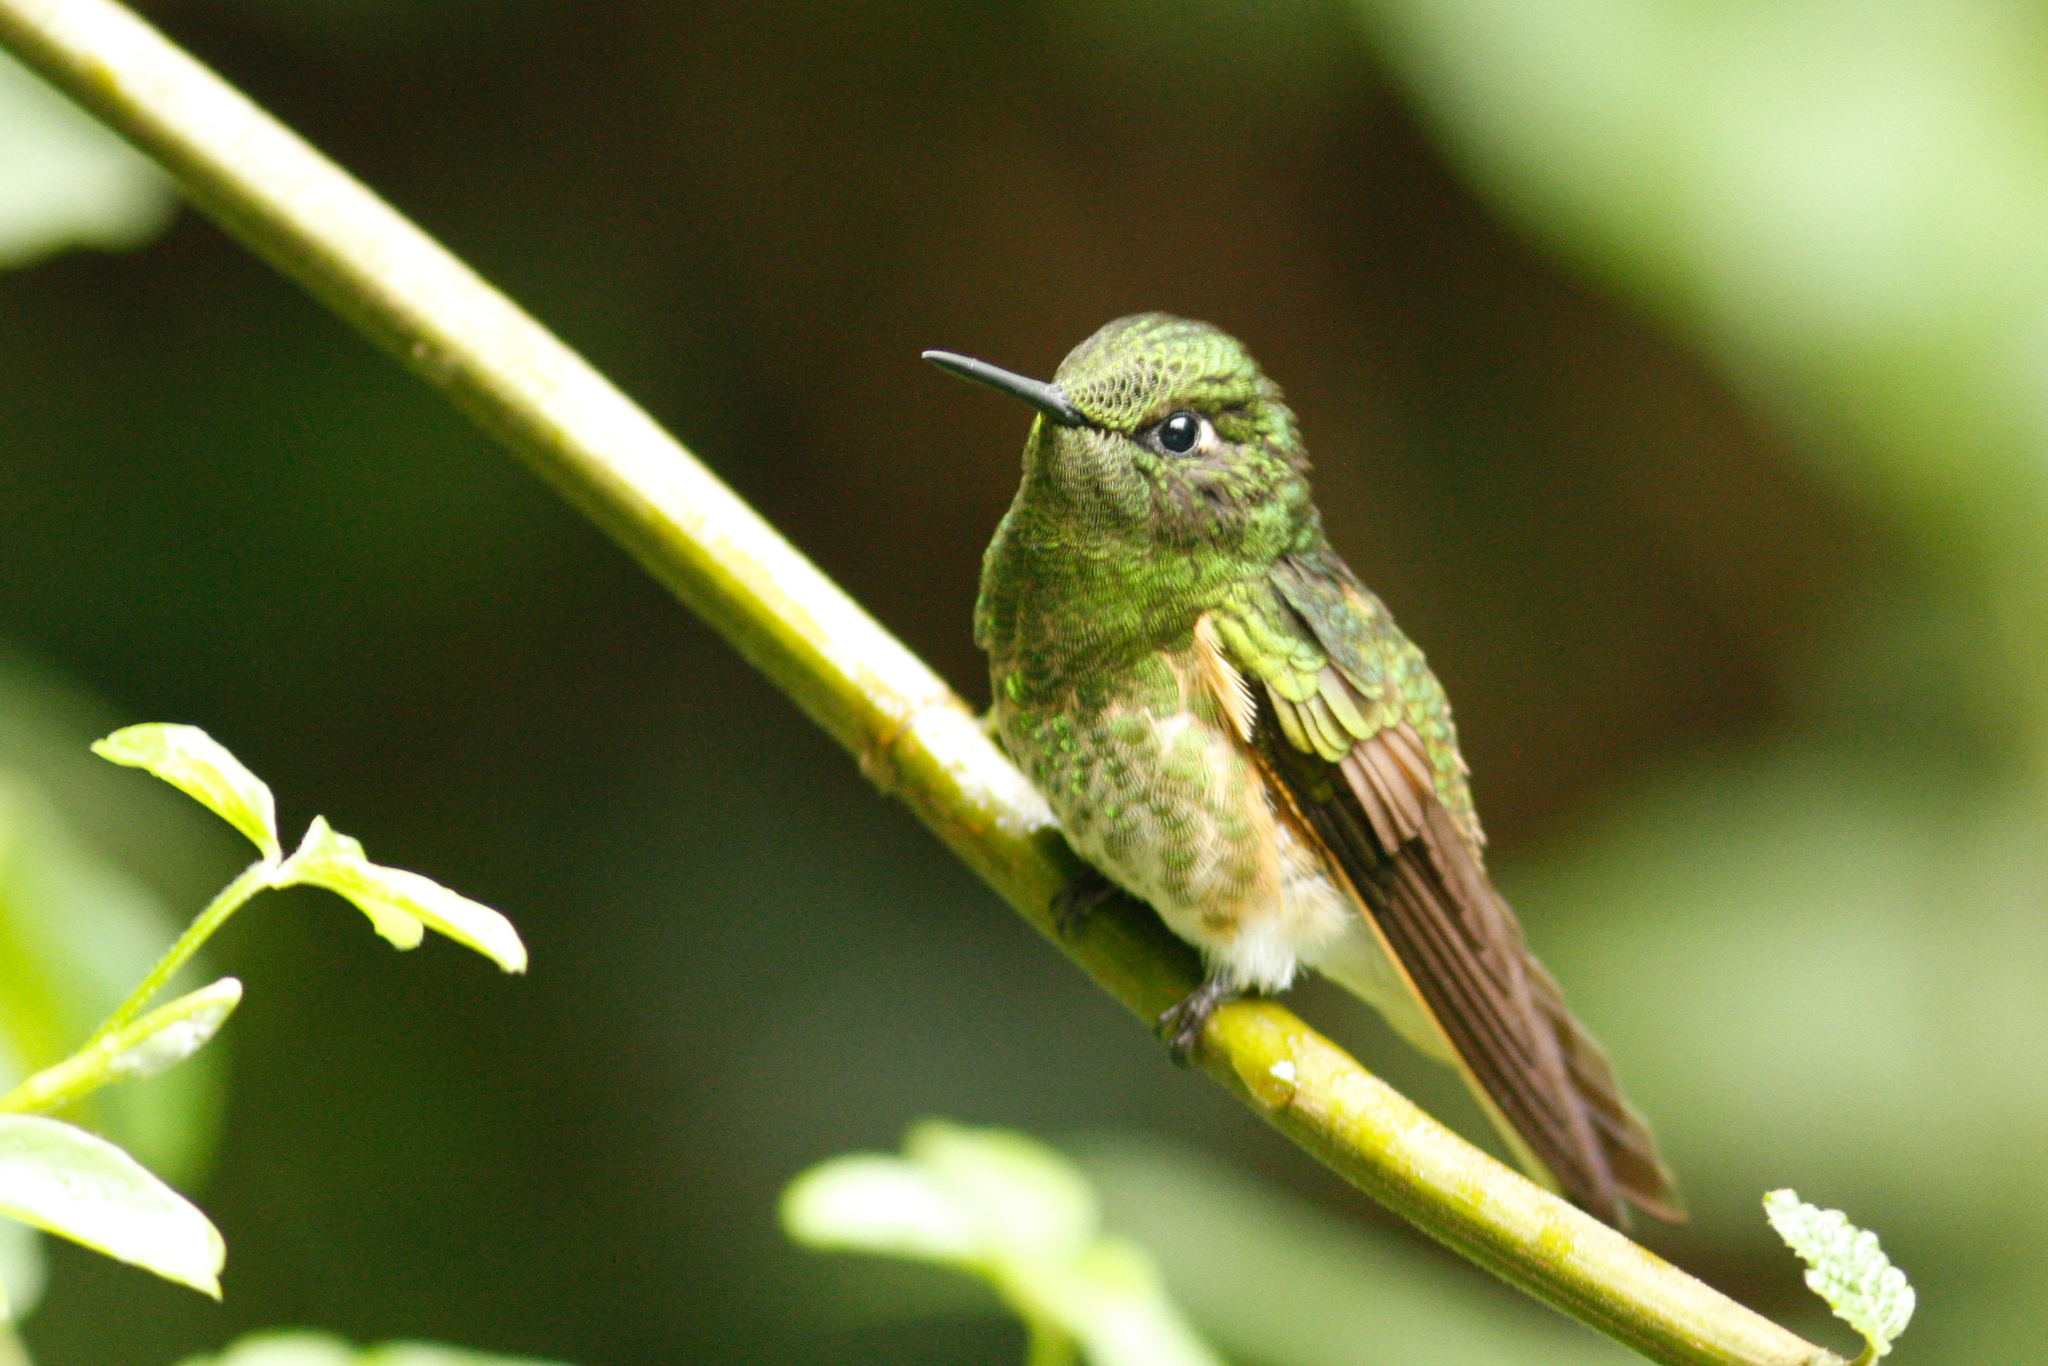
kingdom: Animalia
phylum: Chordata
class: Aves
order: Apodiformes
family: Trochilidae
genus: Boissonneaua
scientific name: Boissonneaua flavescens
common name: Buff-tailed coronet
